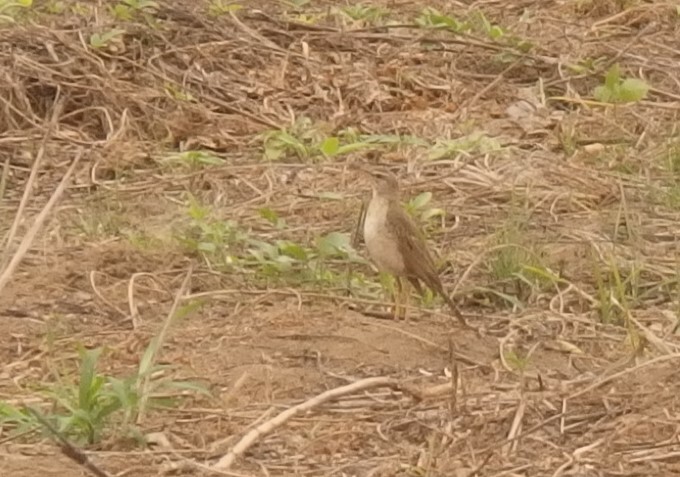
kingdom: Animalia
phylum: Chordata
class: Aves
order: Passeriformes
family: Motacillidae
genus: Anthus
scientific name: Anthus leucophrys
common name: Plain-backed pipit
